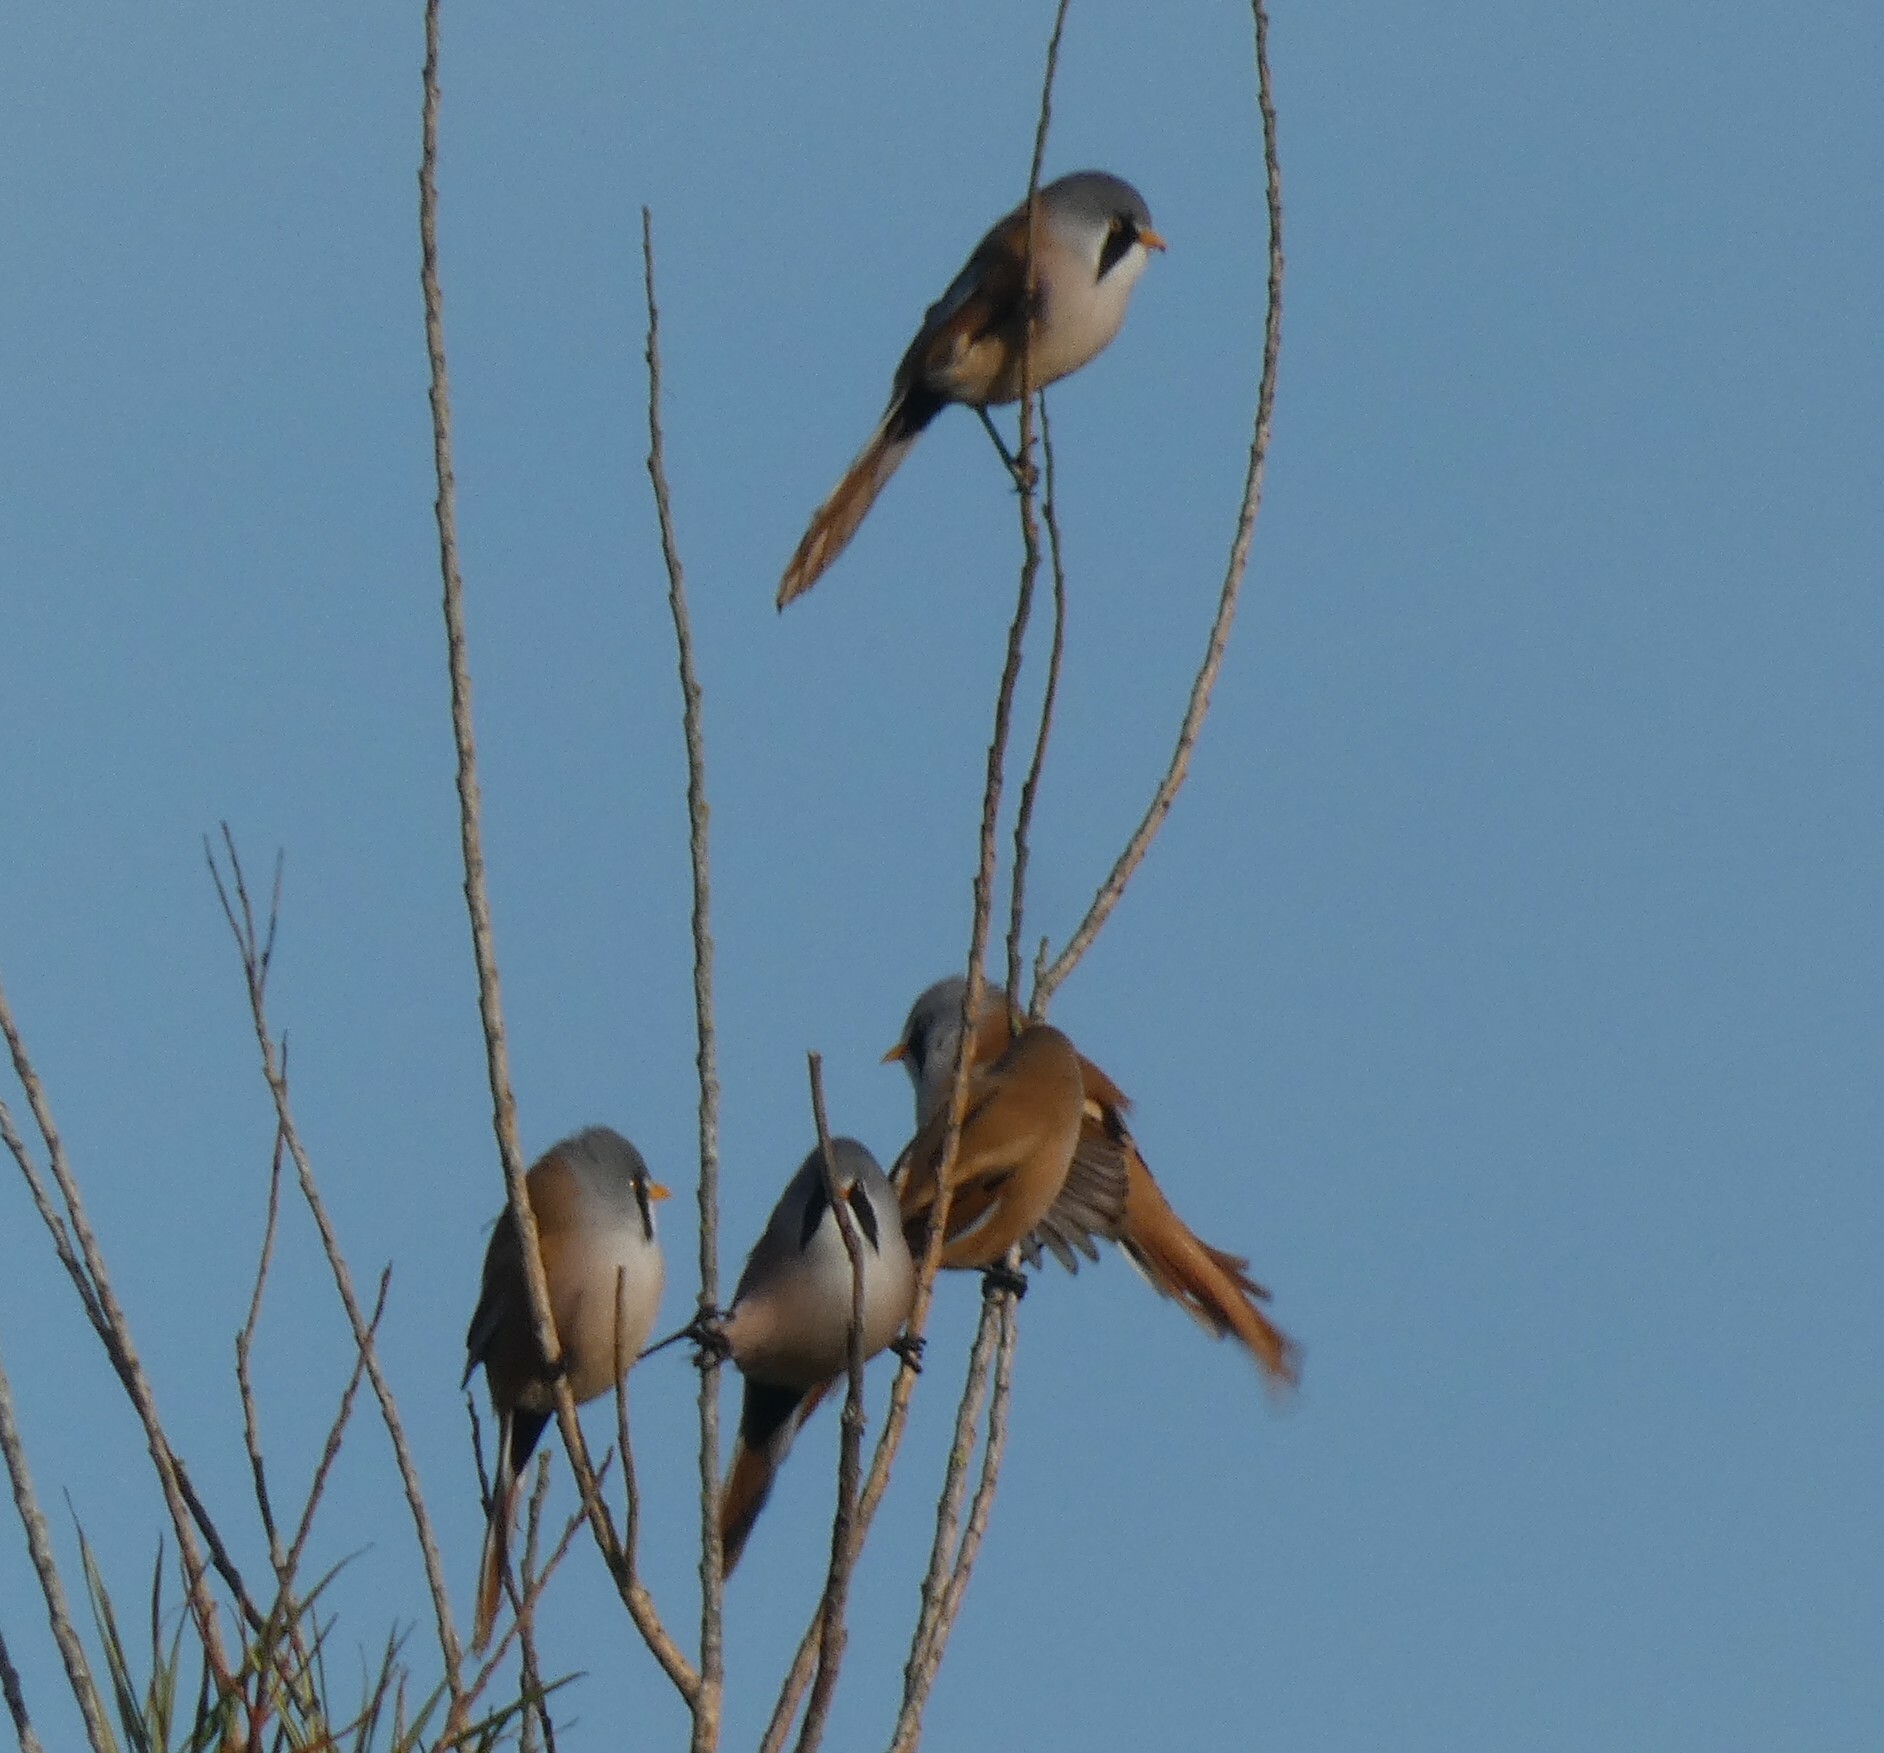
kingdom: Animalia
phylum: Chordata
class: Aves
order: Passeriformes
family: Panuridae
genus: Panurus
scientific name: Panurus biarmicus
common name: Bearded reedling
